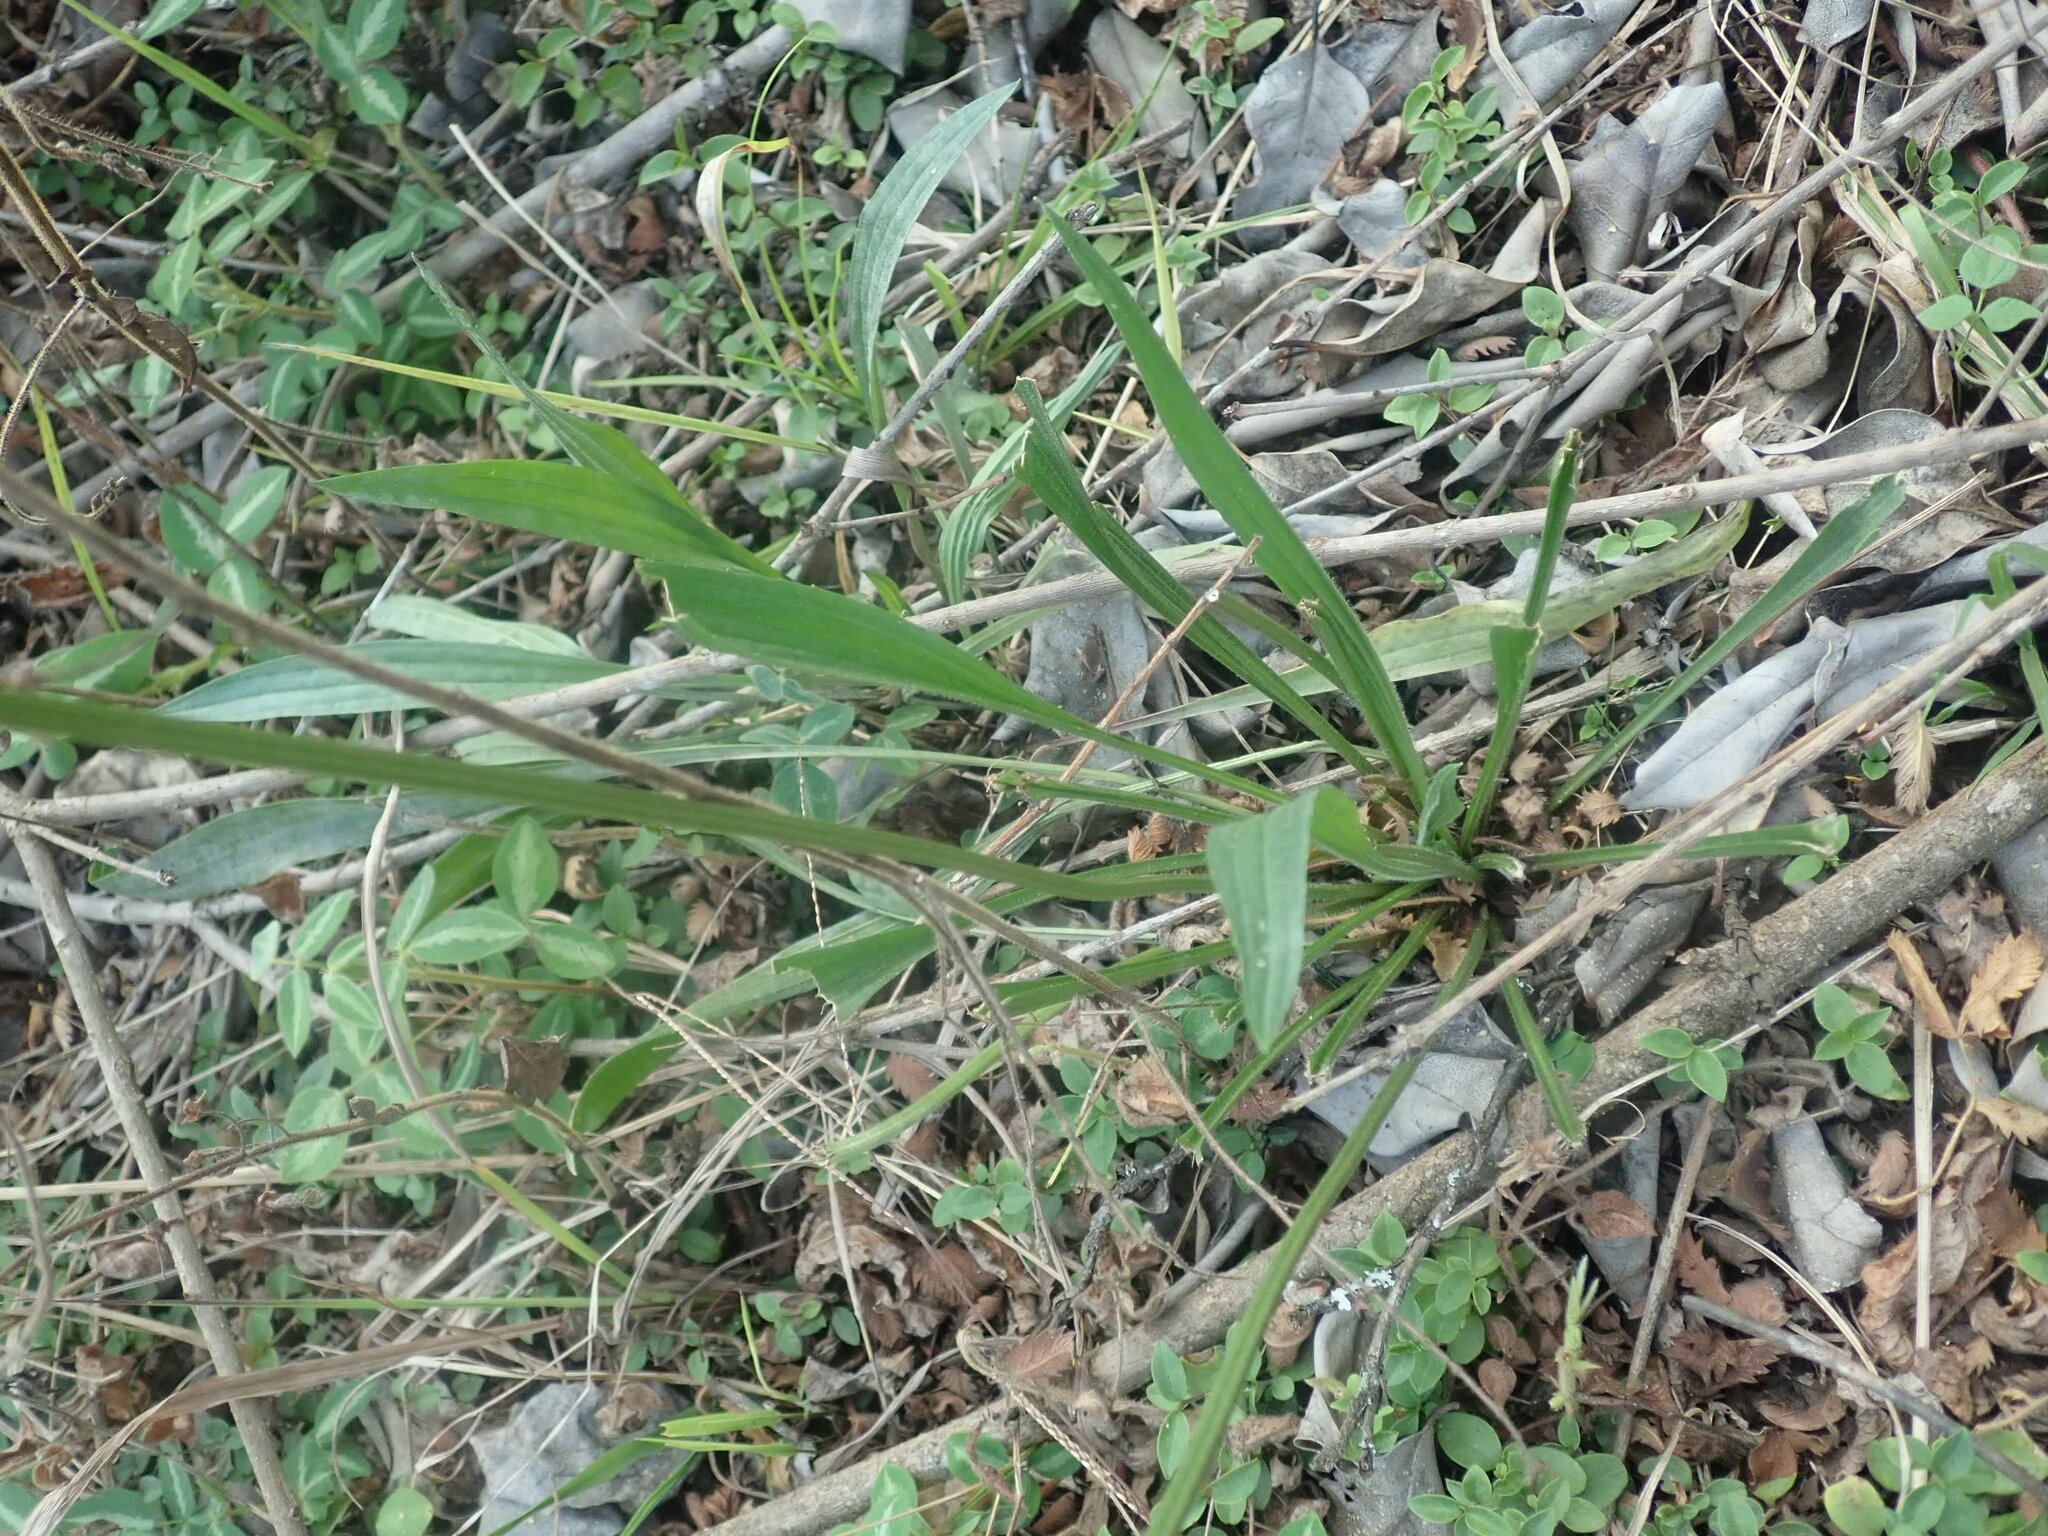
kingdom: Plantae
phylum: Tracheophyta
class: Magnoliopsida
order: Lamiales
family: Plantaginaceae
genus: Plantago
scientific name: Plantago lanceolata
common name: Ribwort plantain
